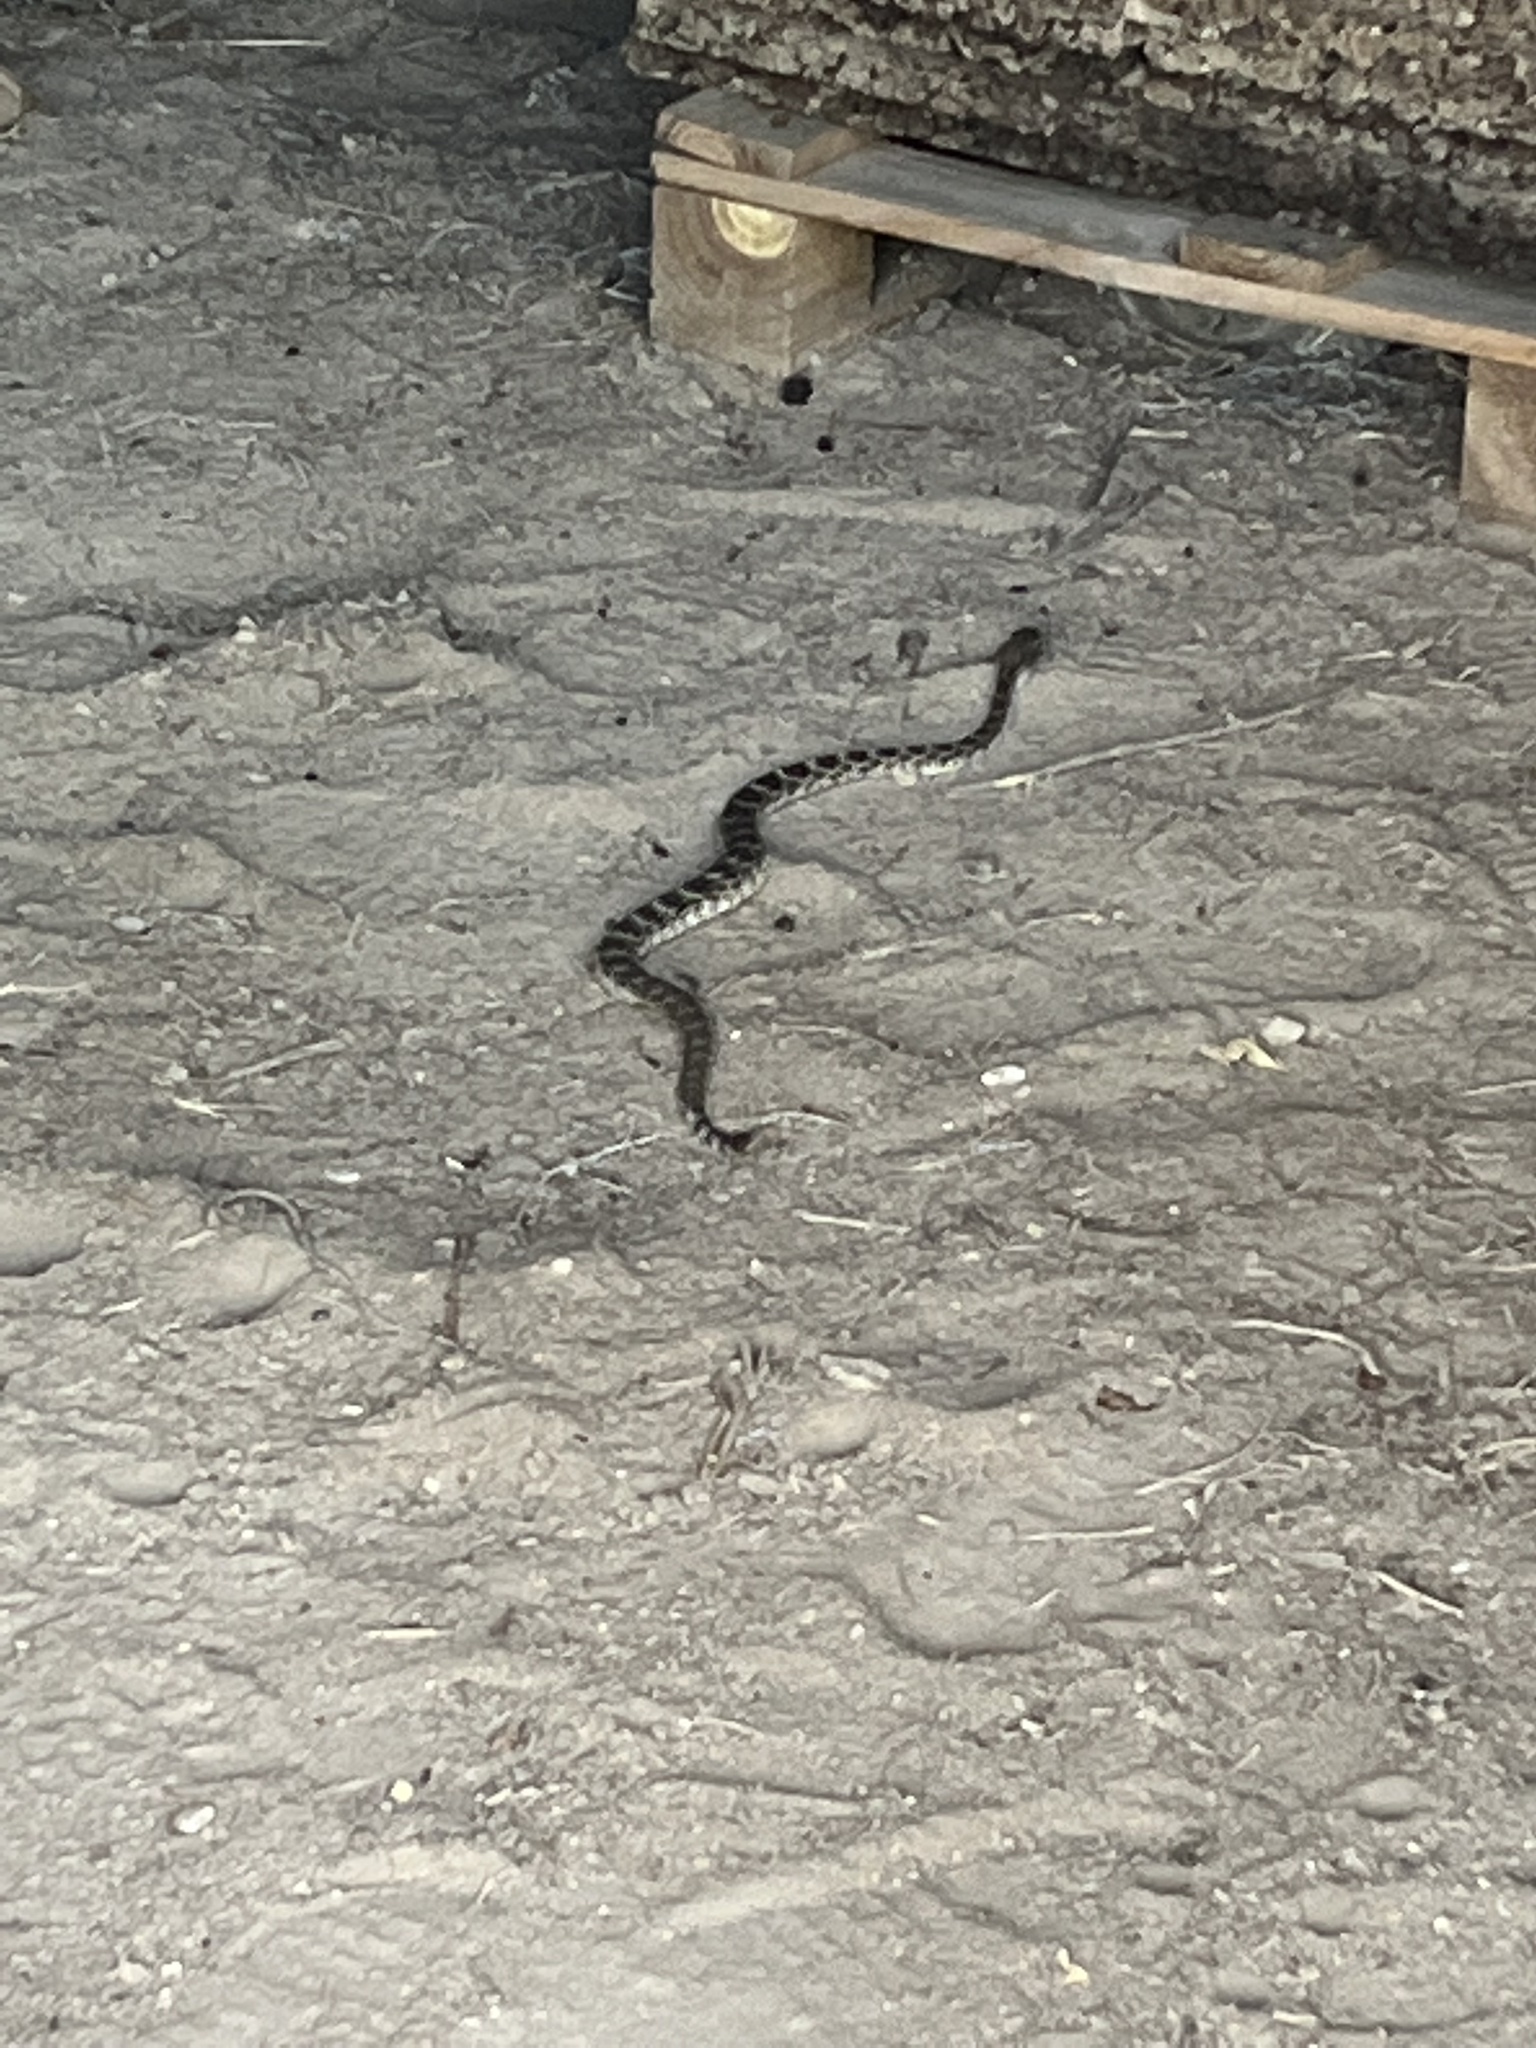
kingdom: Animalia
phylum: Chordata
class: Squamata
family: Viperidae
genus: Crotalus
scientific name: Crotalus atrox
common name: Western diamond-backed rattlesnake
